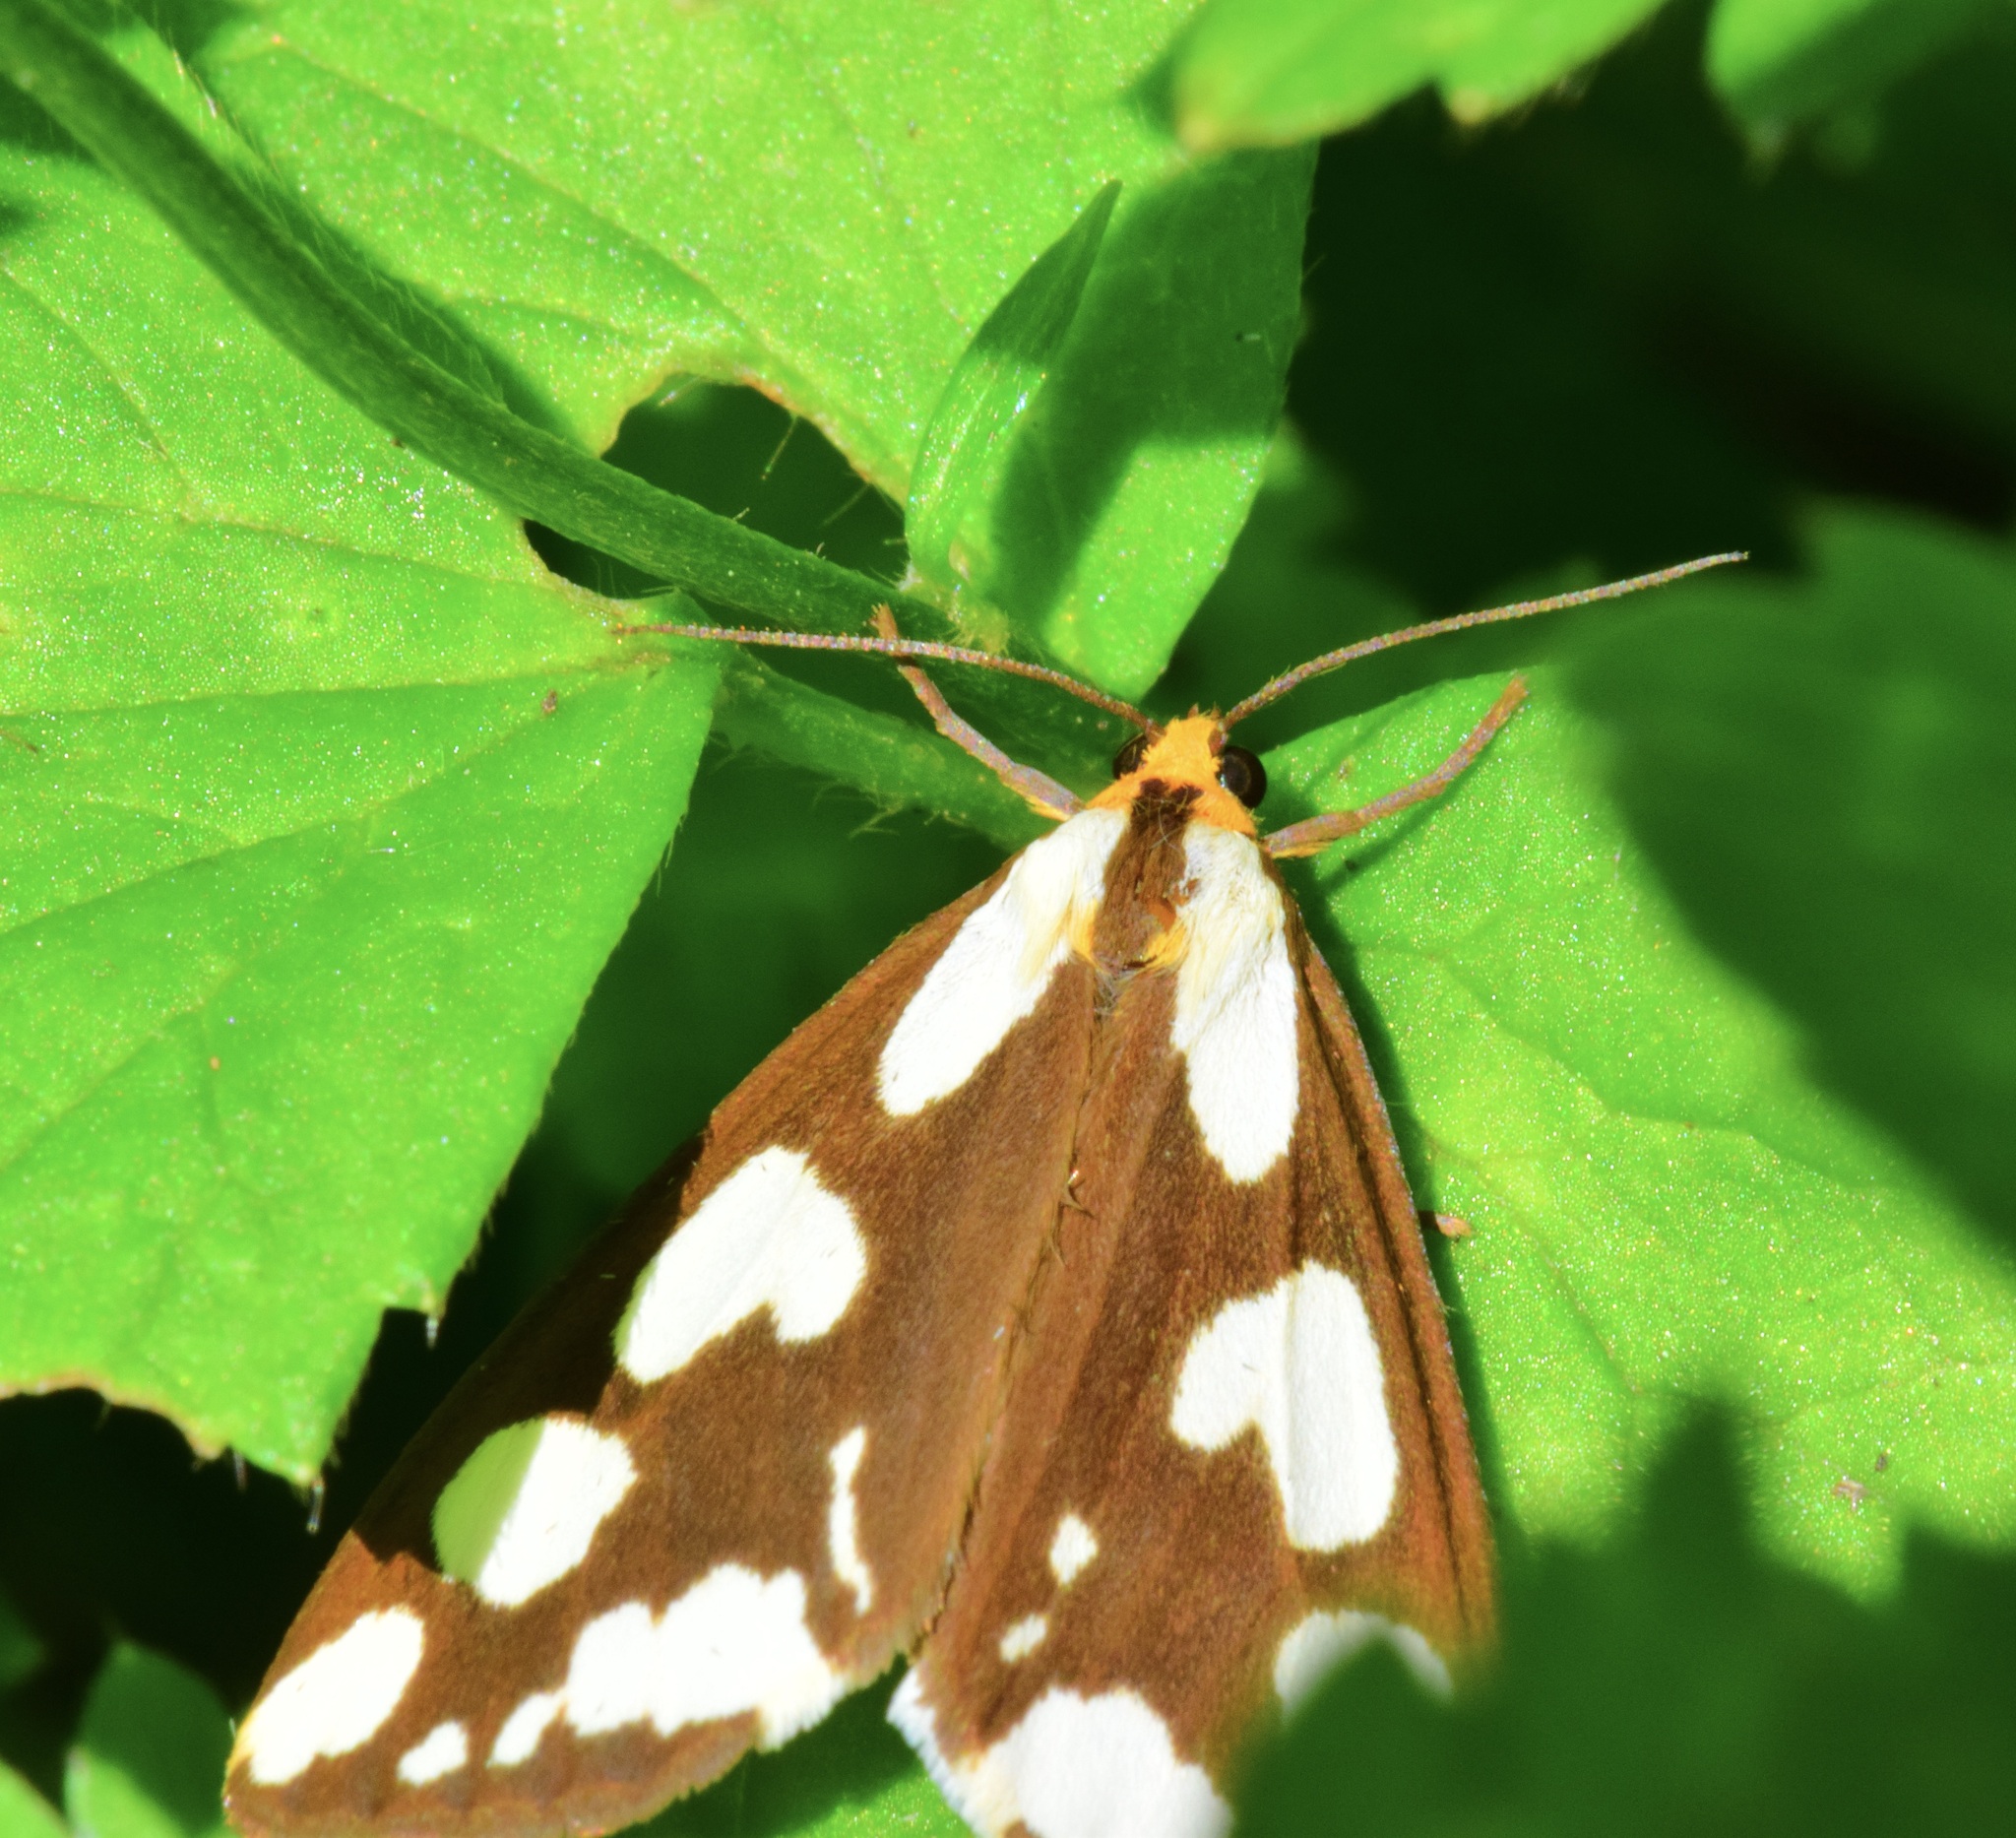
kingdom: Animalia
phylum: Arthropoda
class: Insecta
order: Lepidoptera
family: Erebidae
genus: Haploa
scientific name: Haploa confusa
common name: Confused haploa moth
